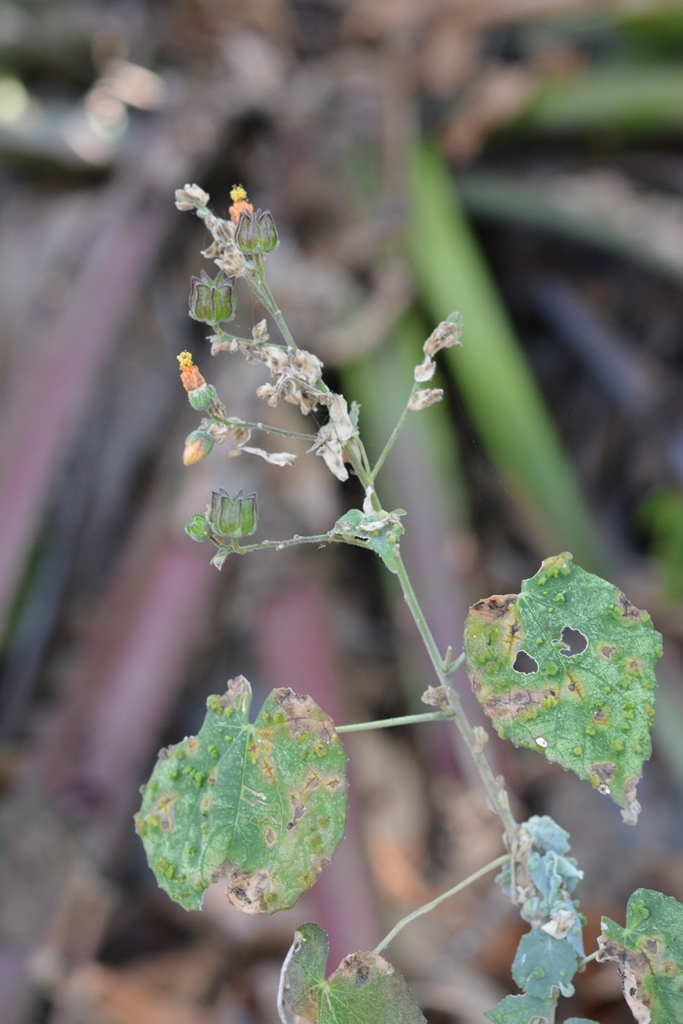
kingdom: Plantae
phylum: Tracheophyta
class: Magnoliopsida
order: Malvales
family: Malvaceae
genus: Abutilon
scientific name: Abutilon andrieuxii
